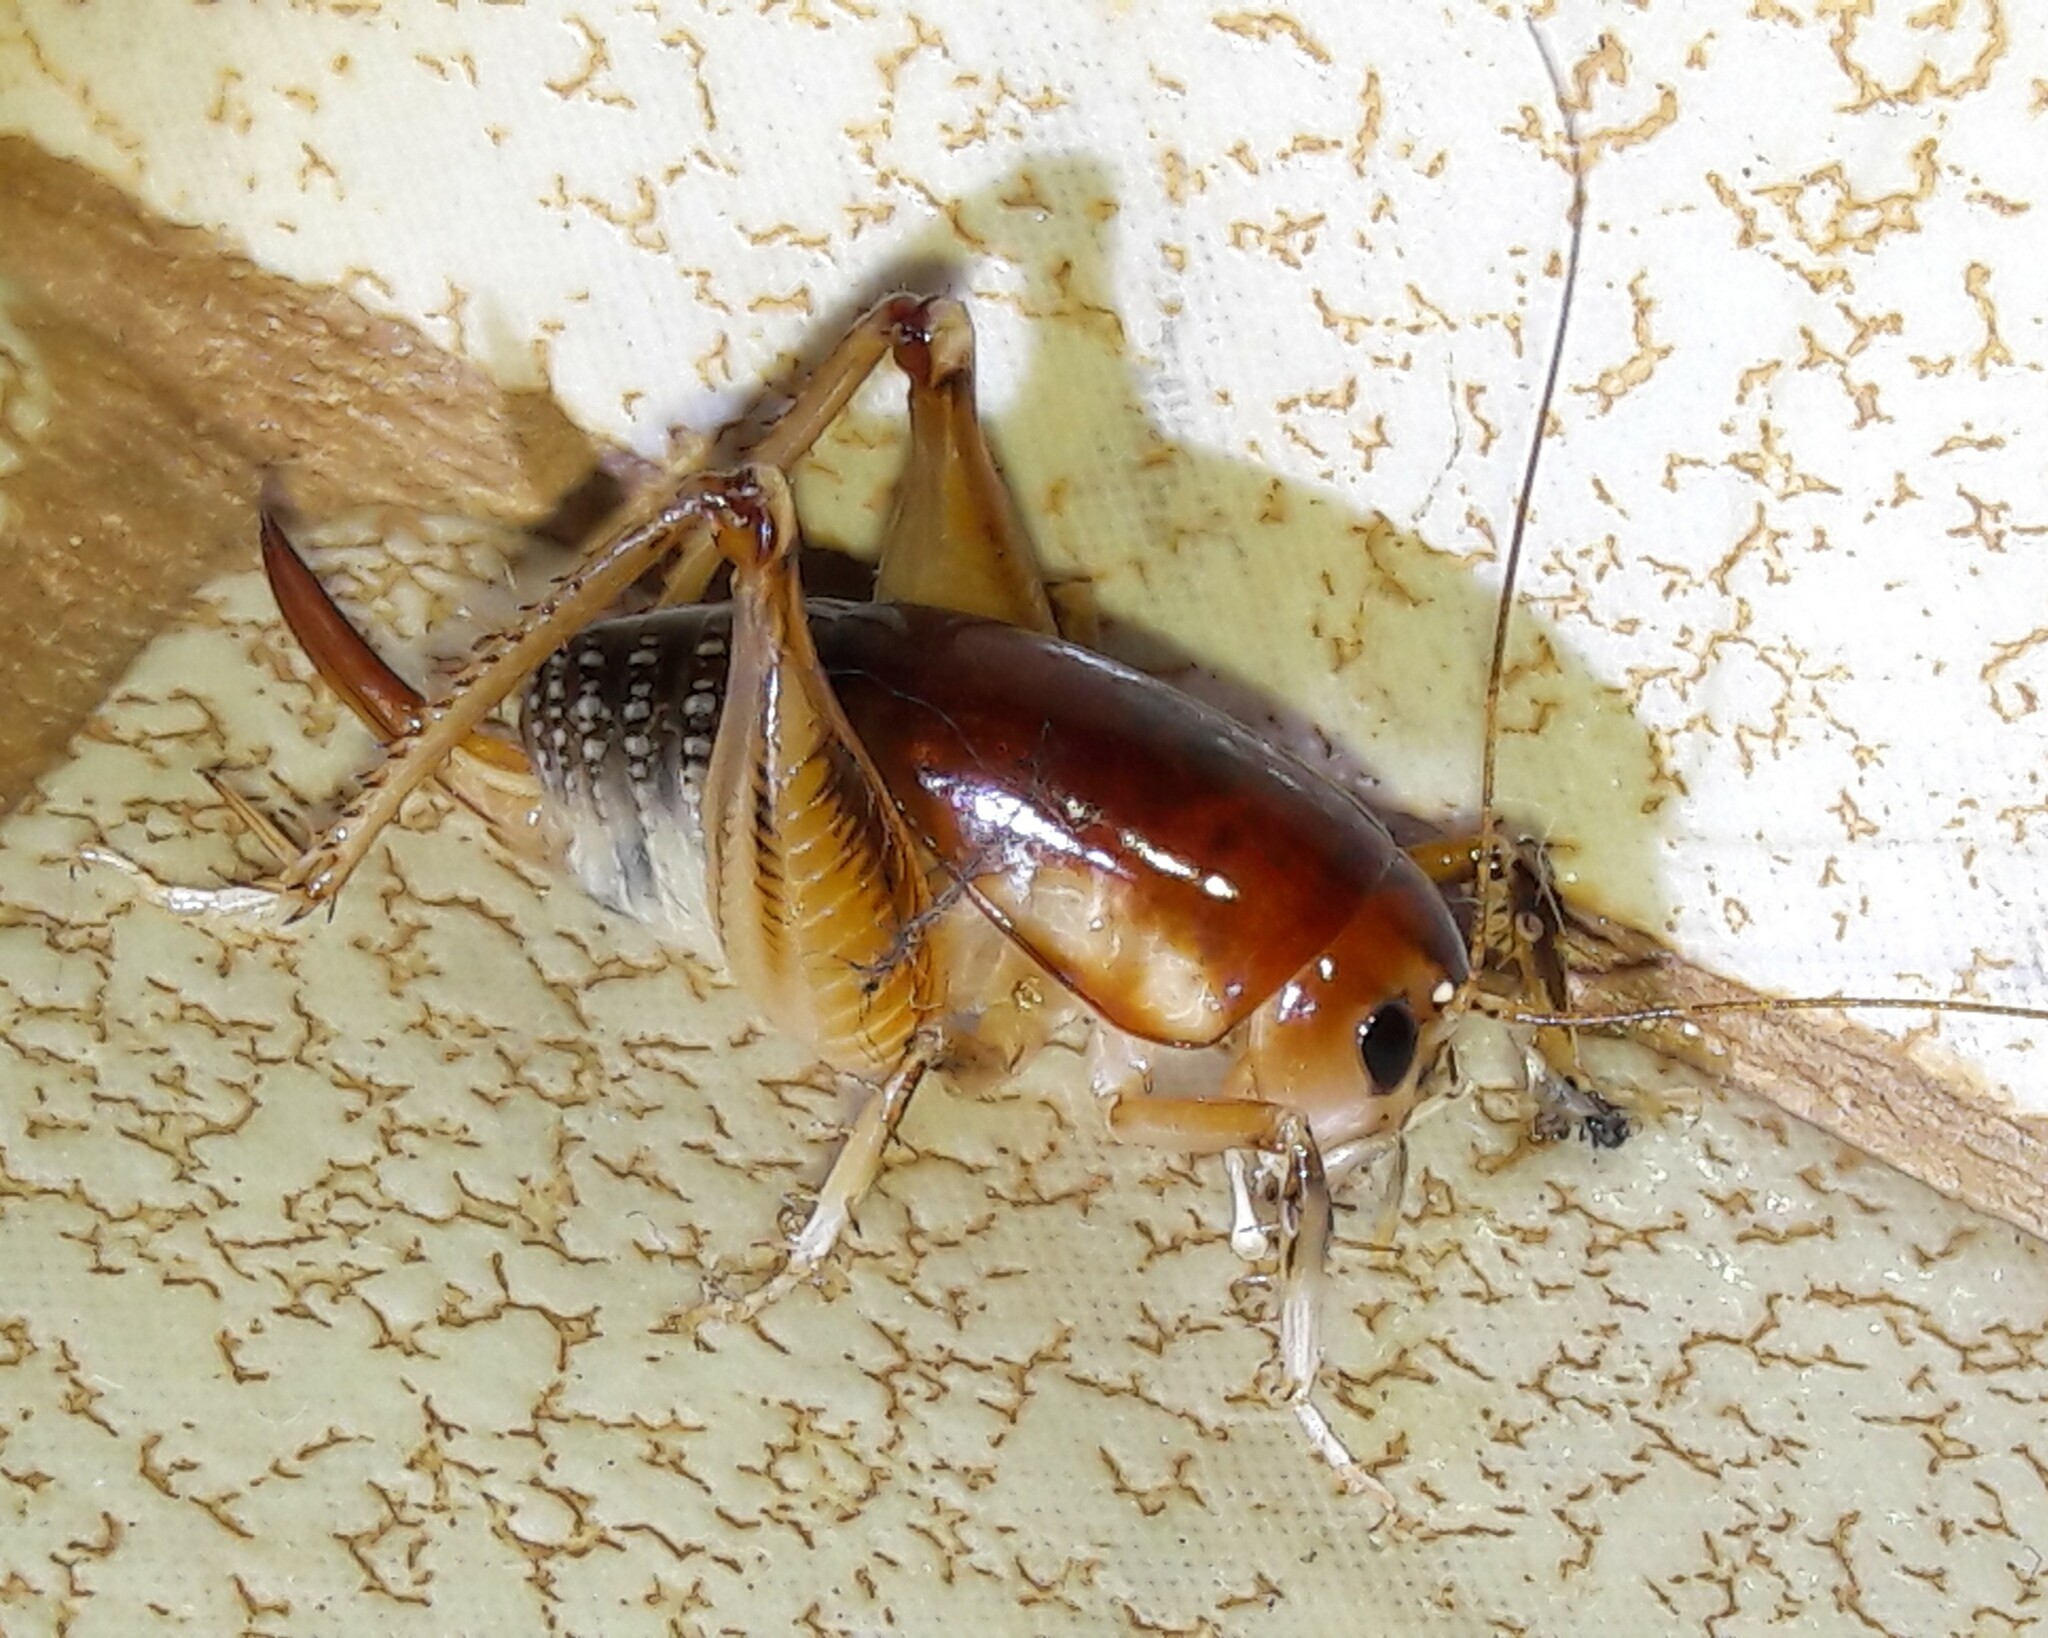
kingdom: Animalia
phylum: Arthropoda
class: Insecta
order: Orthoptera
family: Anostostomatidae
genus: Apotetamenus
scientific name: Apotetamenus clipeatus
